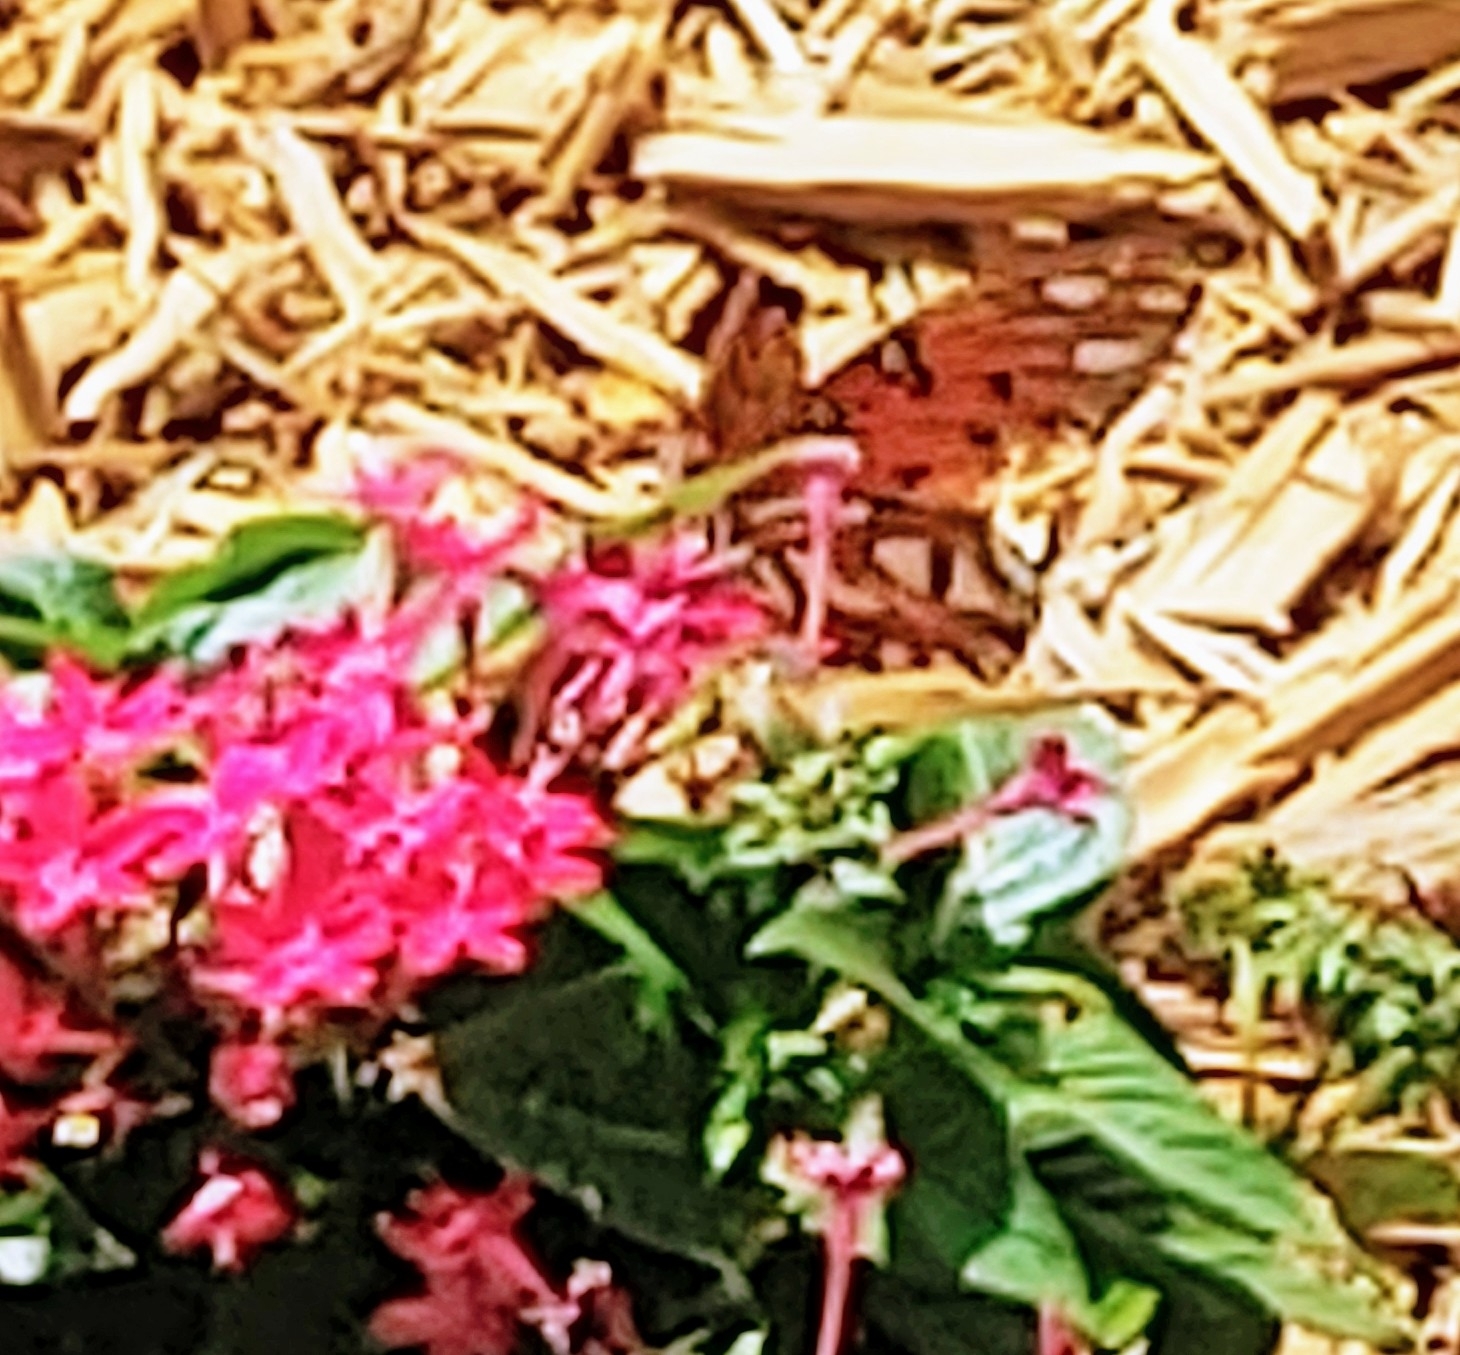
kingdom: Animalia
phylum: Arthropoda
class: Insecta
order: Lepidoptera
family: Nymphalidae
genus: Dione
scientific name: Dione vanillae
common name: Gulf fritillary
